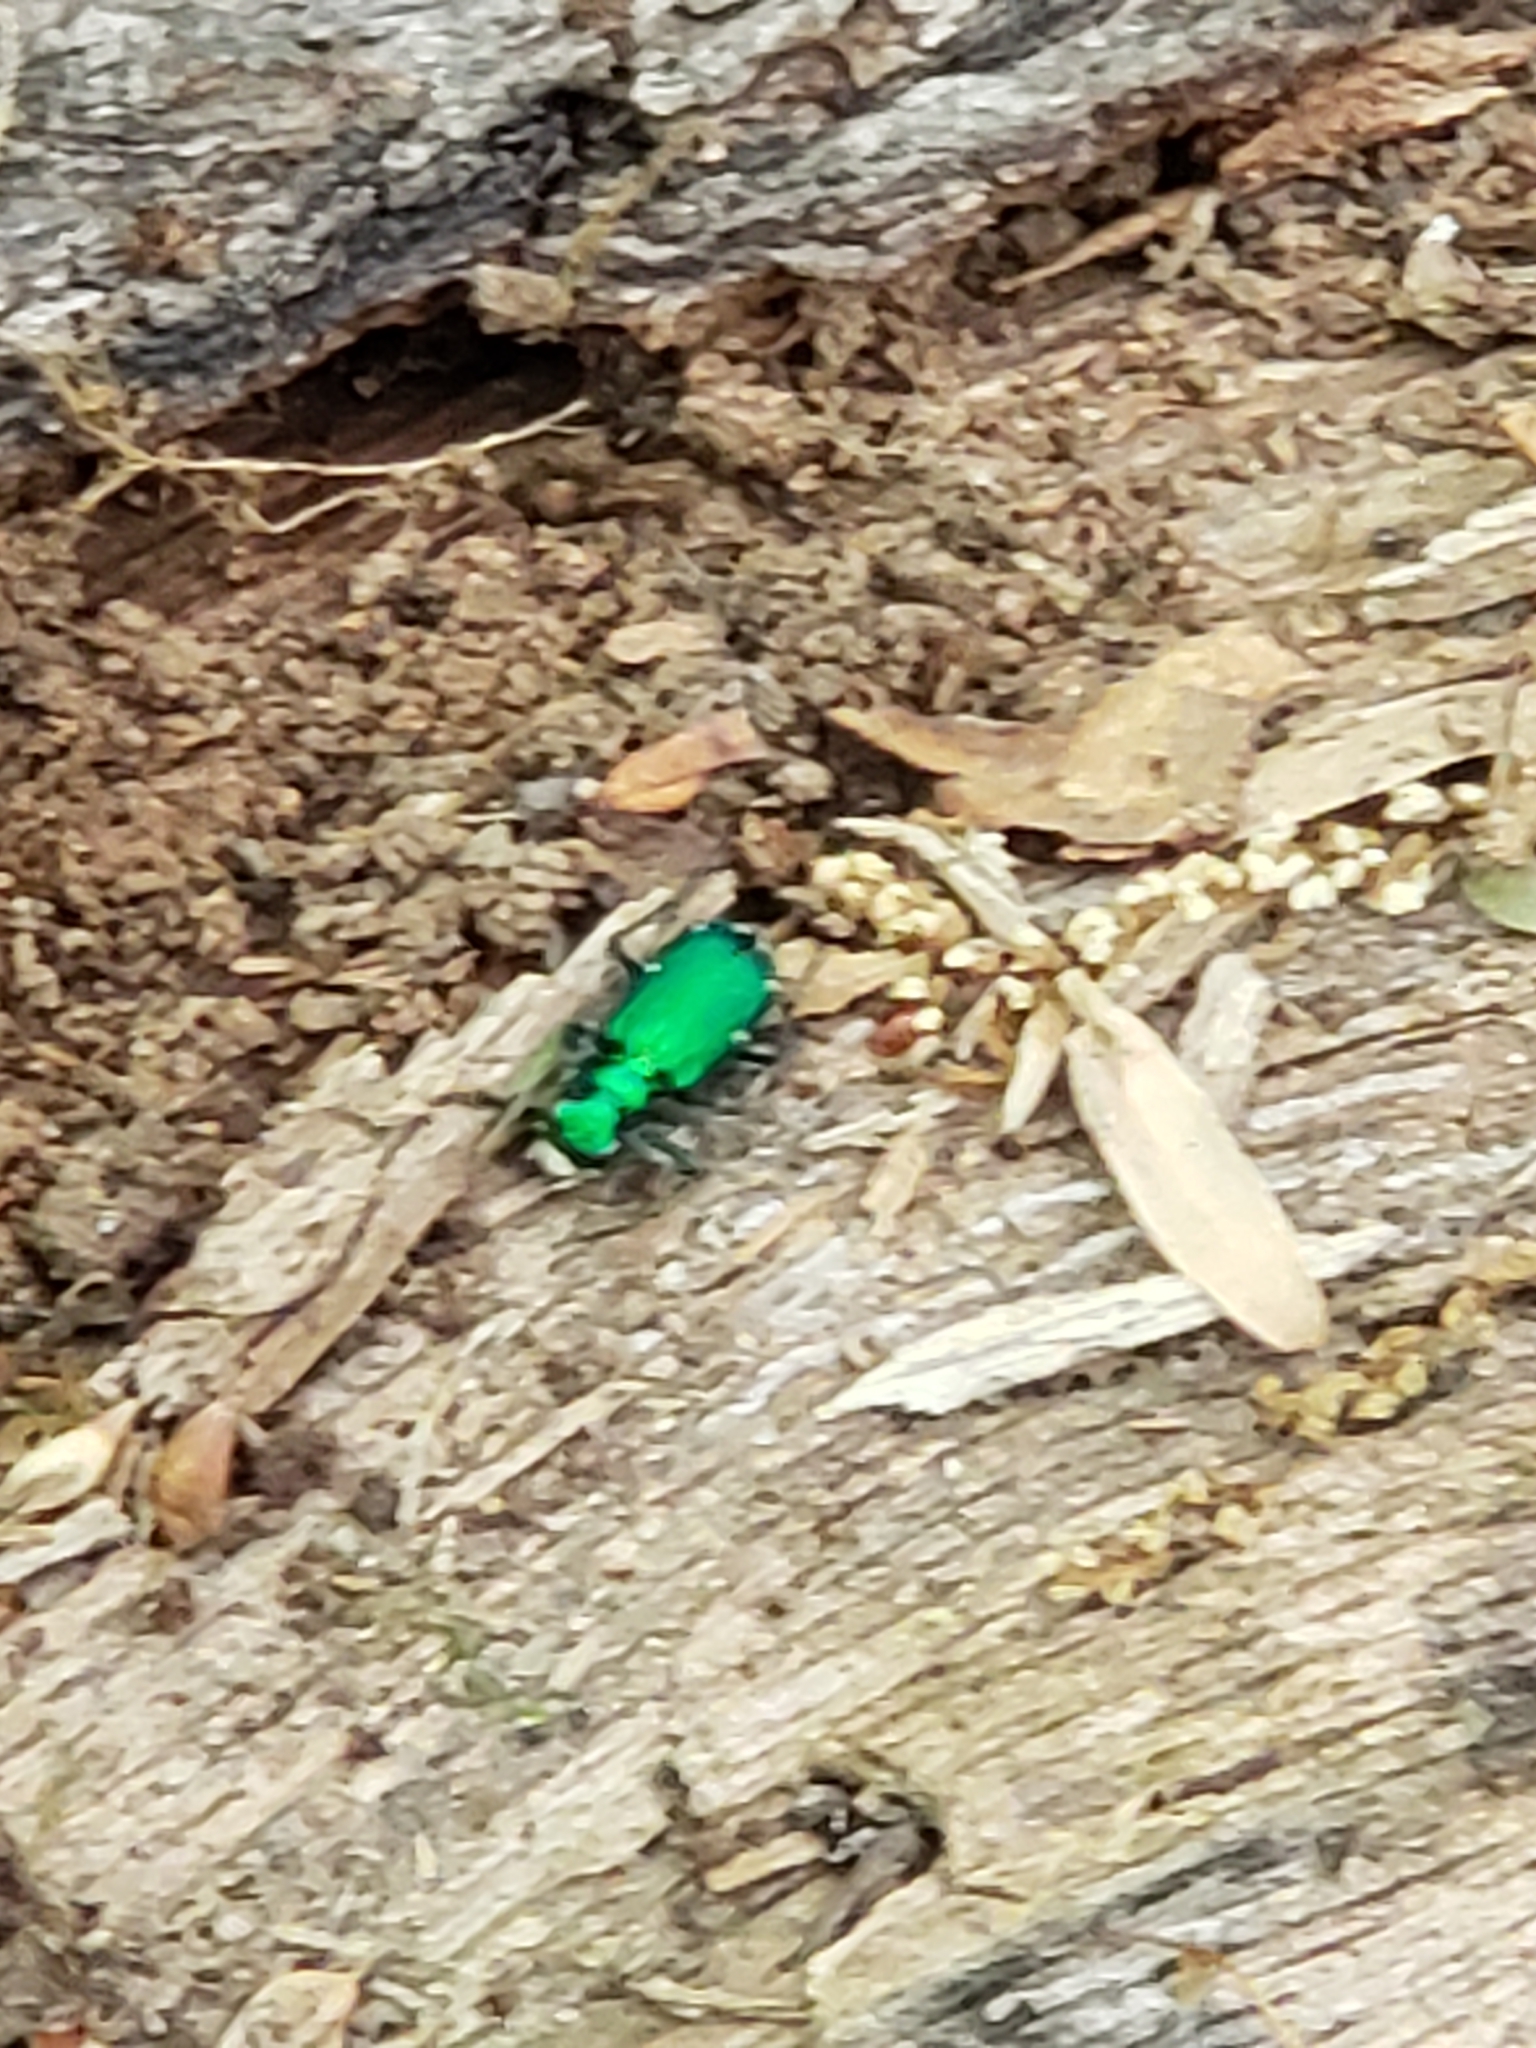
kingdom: Animalia
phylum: Arthropoda
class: Insecta
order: Coleoptera
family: Carabidae
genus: Cicindela
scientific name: Cicindela sexguttata
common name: Six-spotted tiger beetle
